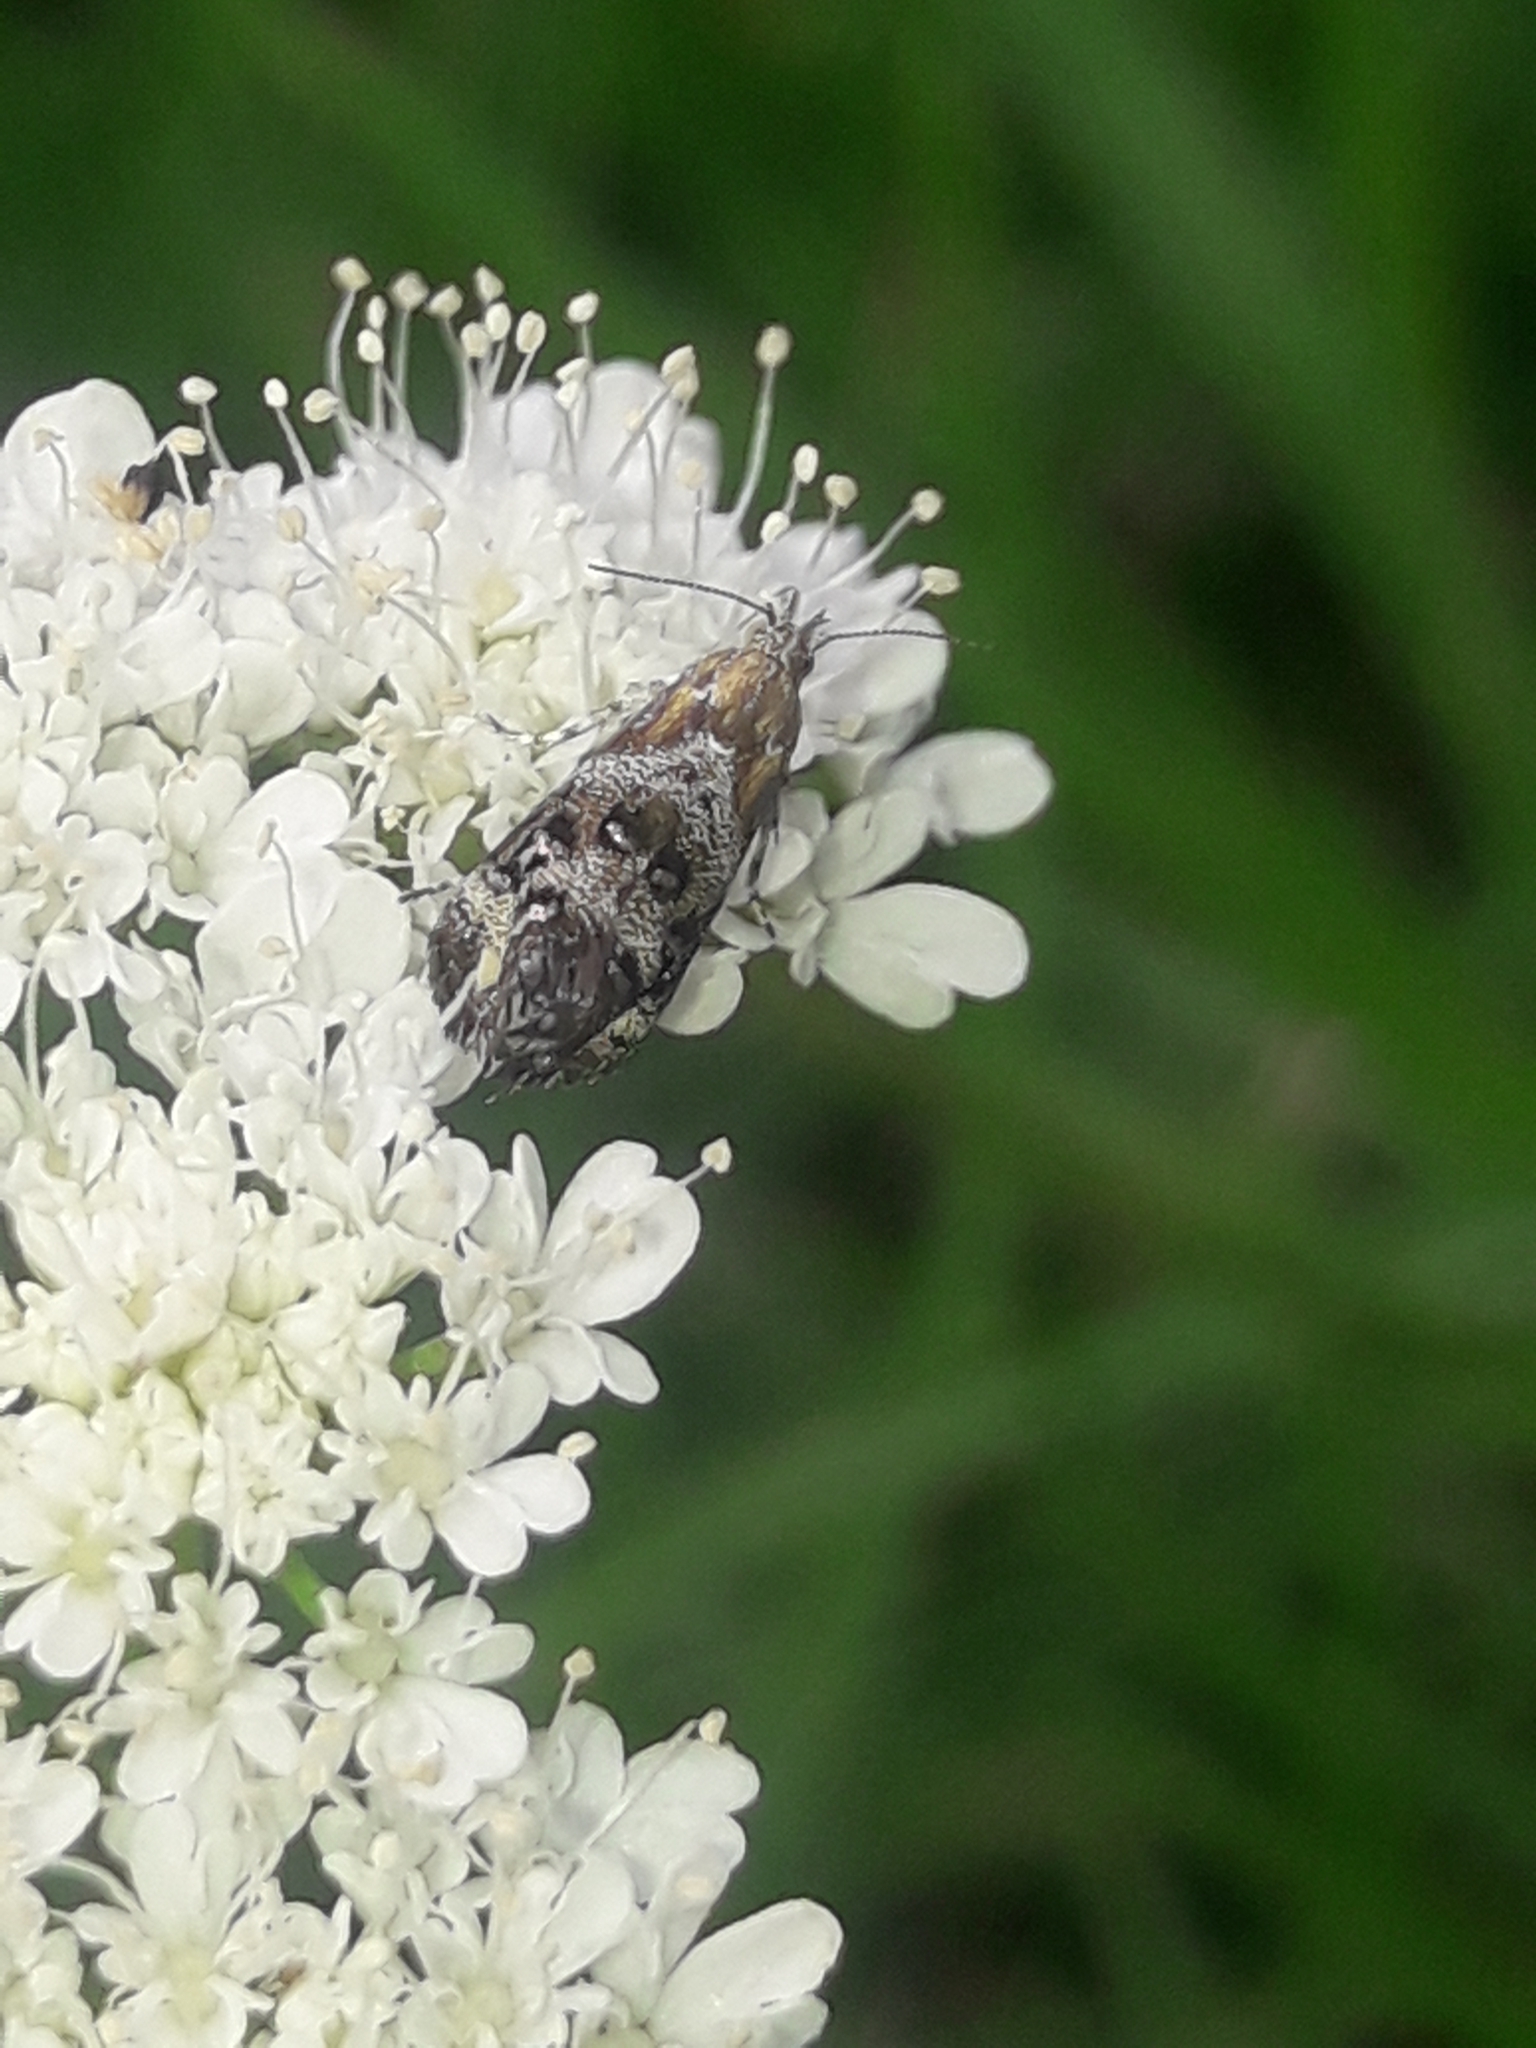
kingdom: Animalia
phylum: Arthropoda
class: Insecta
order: Lepidoptera
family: Choreutidae
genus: Tebenna
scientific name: Tebenna micalis
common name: Vagrant twitcher
